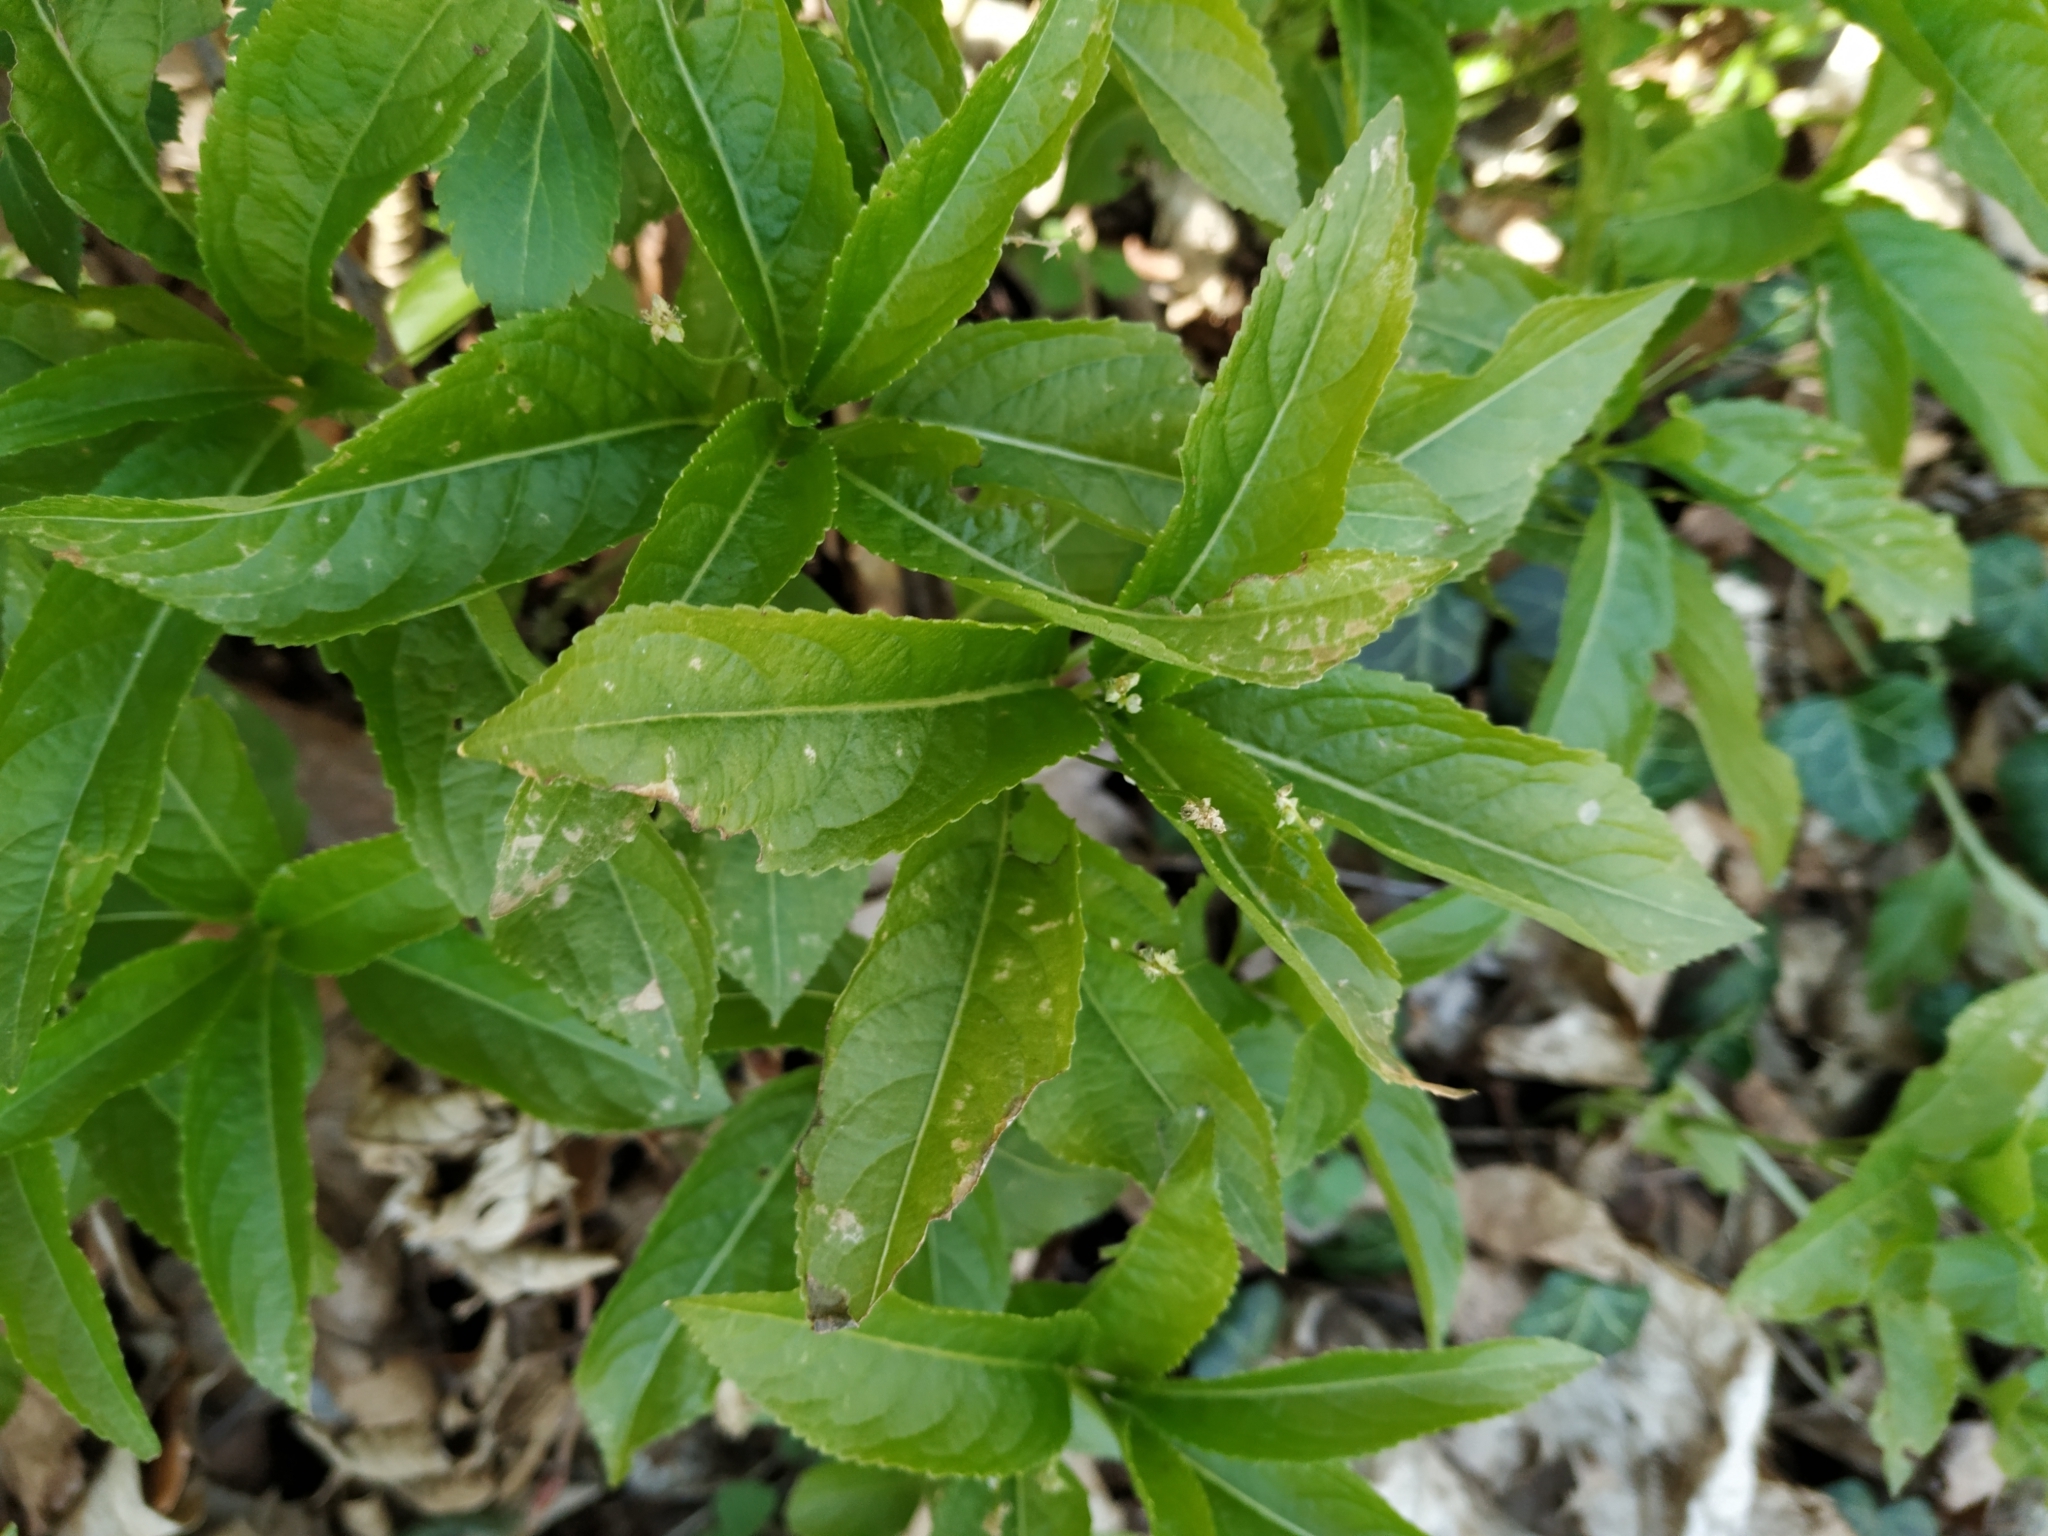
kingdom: Plantae
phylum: Tracheophyta
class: Magnoliopsida
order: Malpighiales
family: Euphorbiaceae
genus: Mercurialis
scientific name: Mercurialis perennis
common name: Dog mercury
